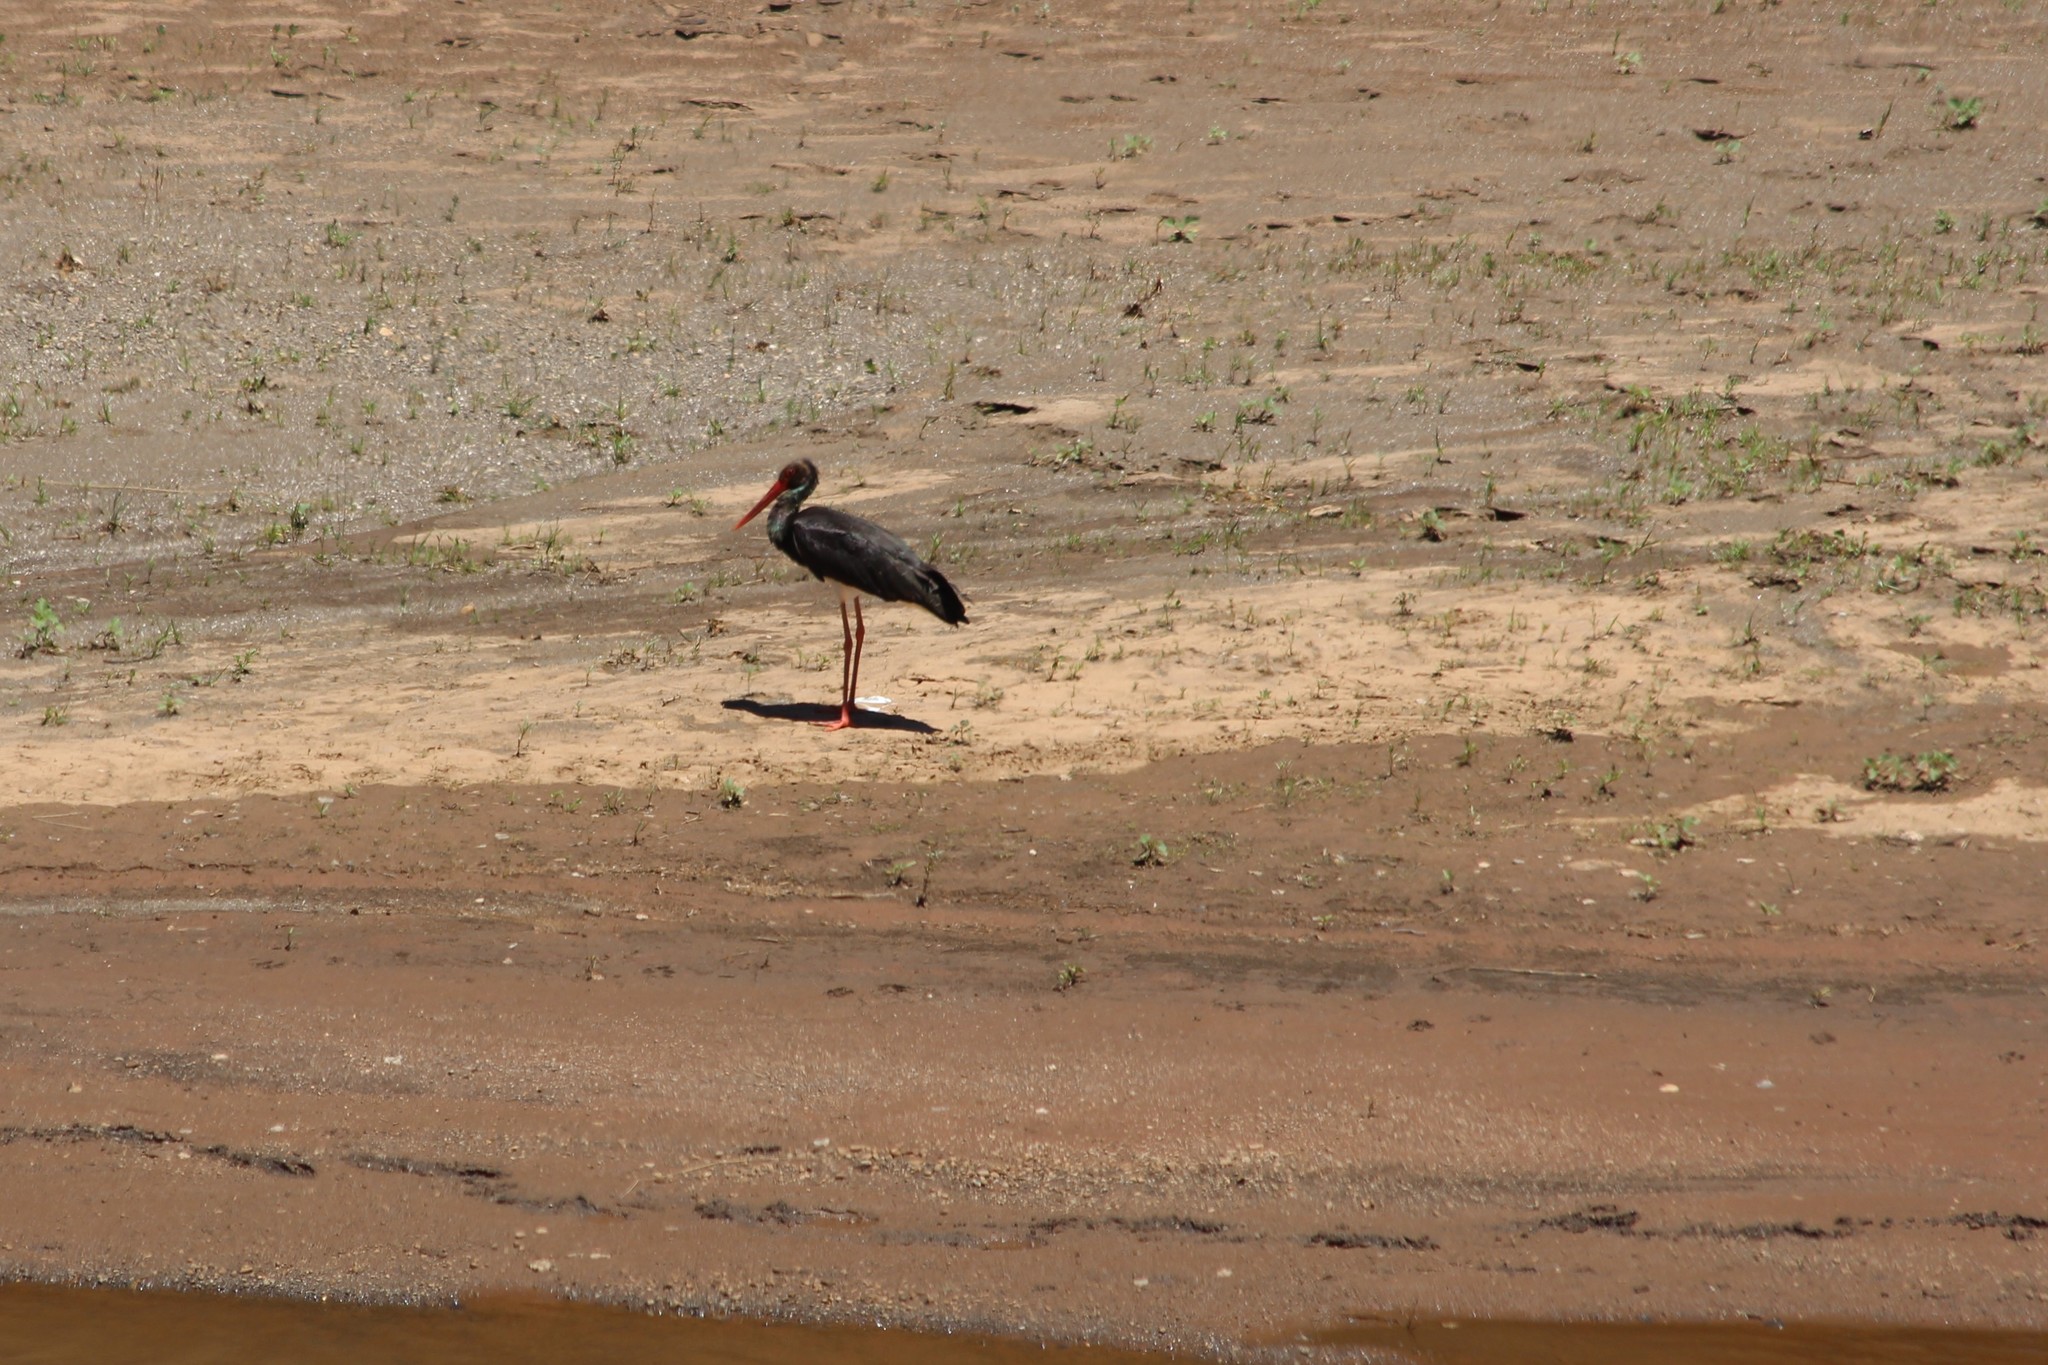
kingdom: Animalia
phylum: Chordata
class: Aves
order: Ciconiiformes
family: Ciconiidae
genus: Ciconia
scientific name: Ciconia nigra
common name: Black stork
